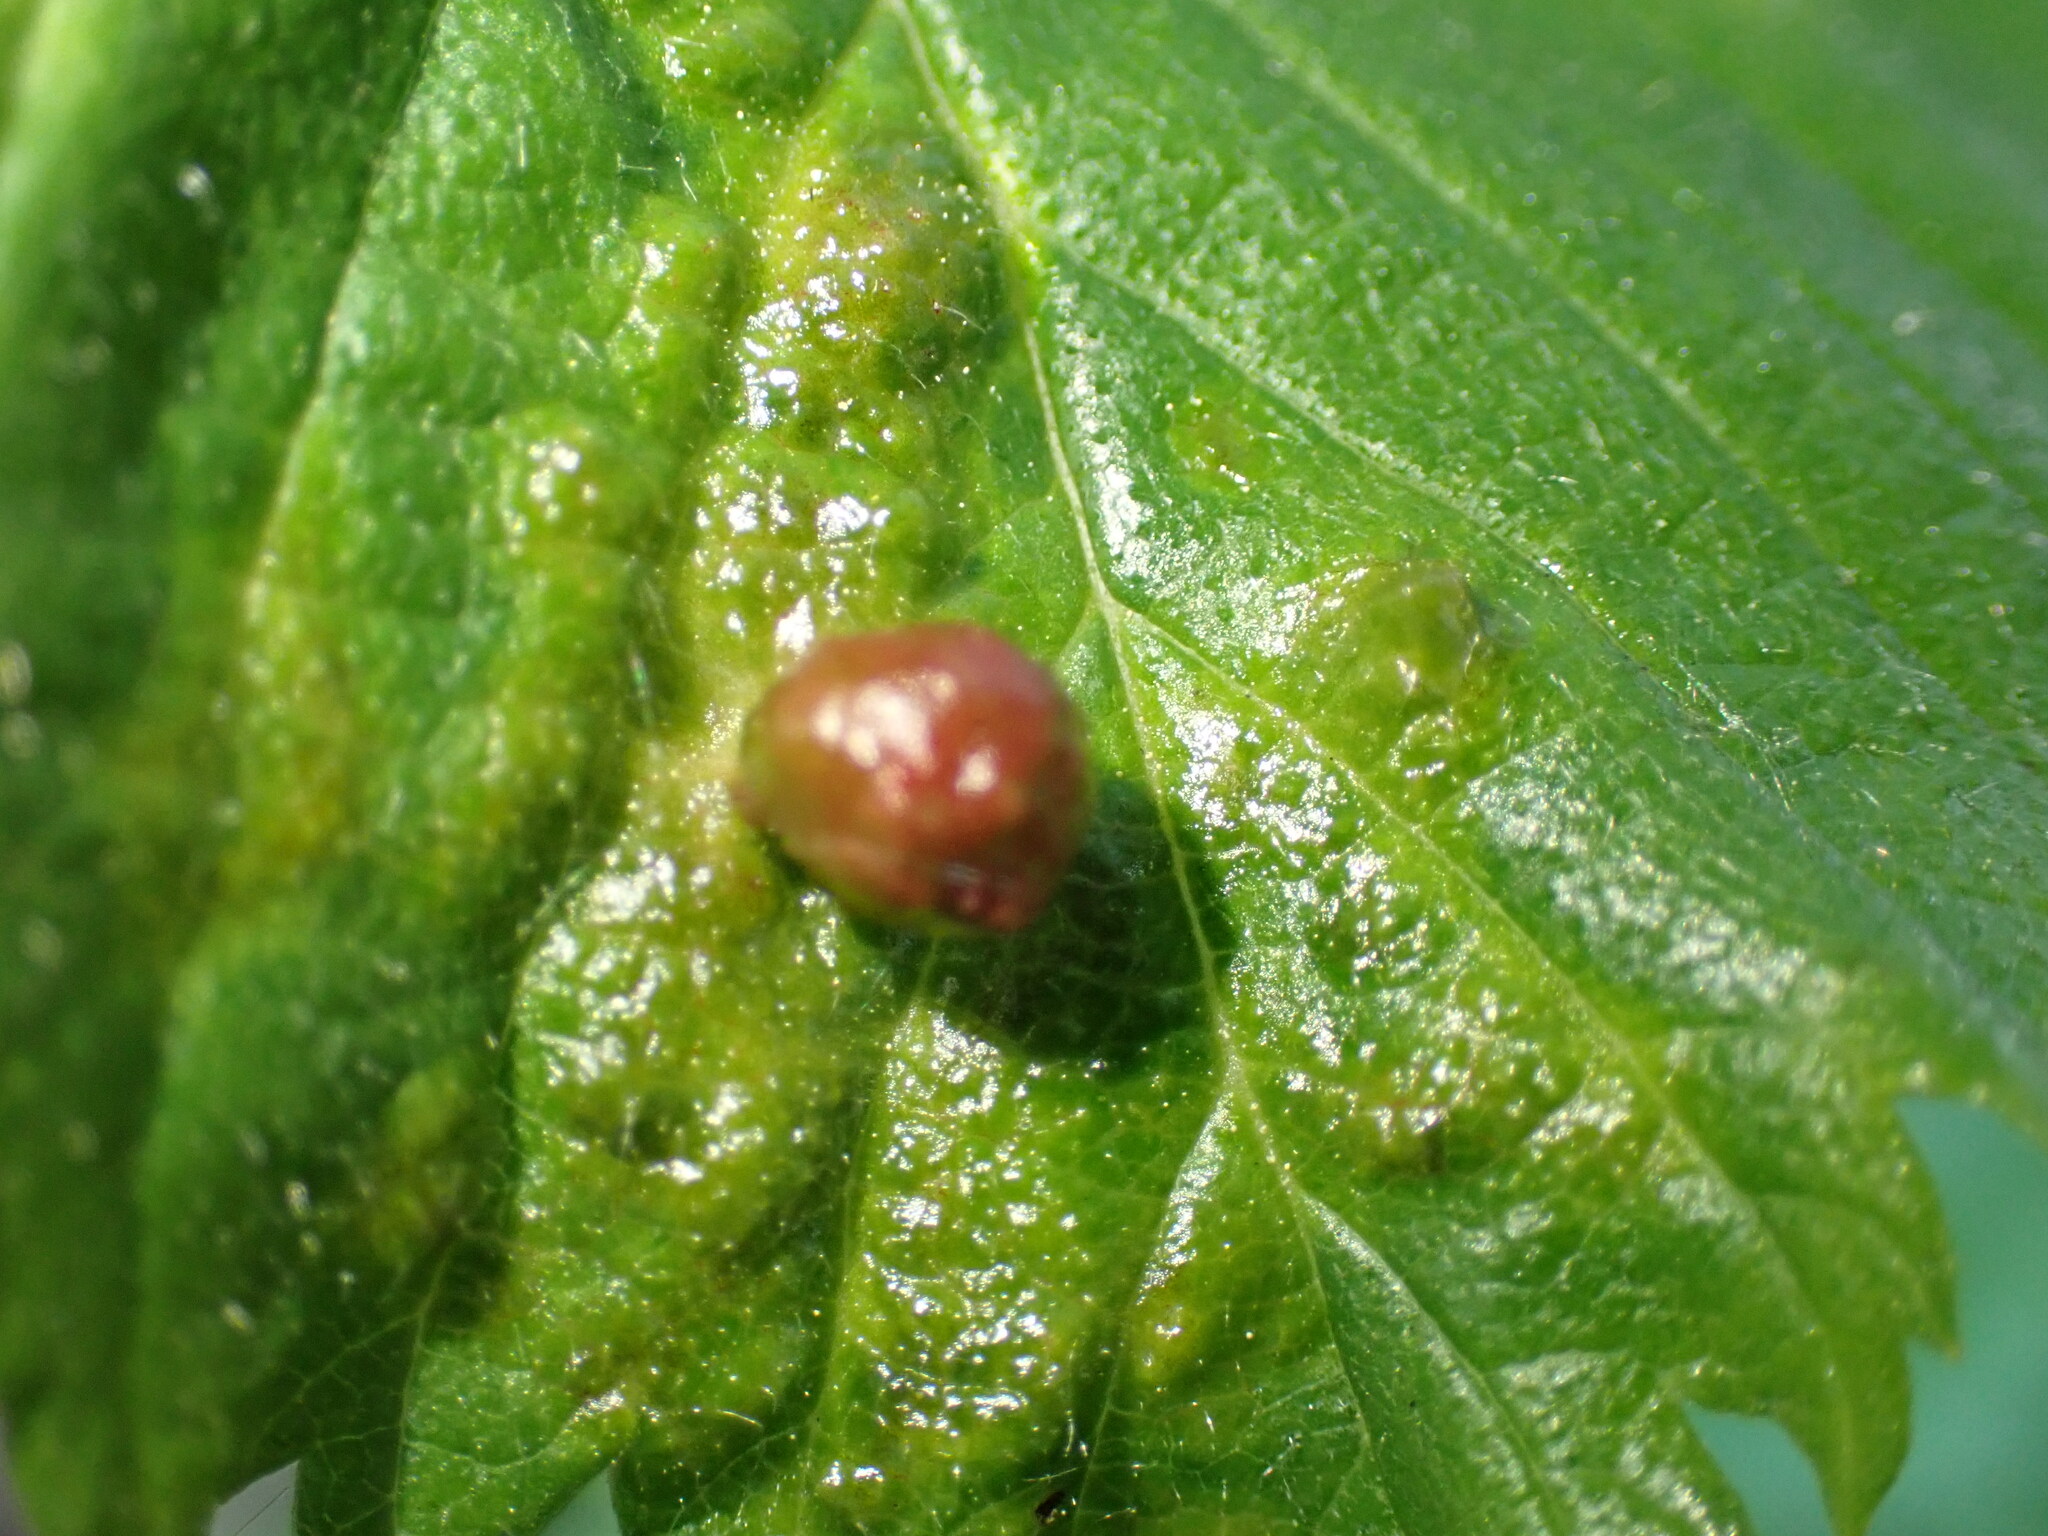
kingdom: Animalia
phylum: Arthropoda
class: Insecta
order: Hemiptera
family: Aphididae
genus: Tetraneura
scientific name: Tetraneura ulmi
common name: Aphid
